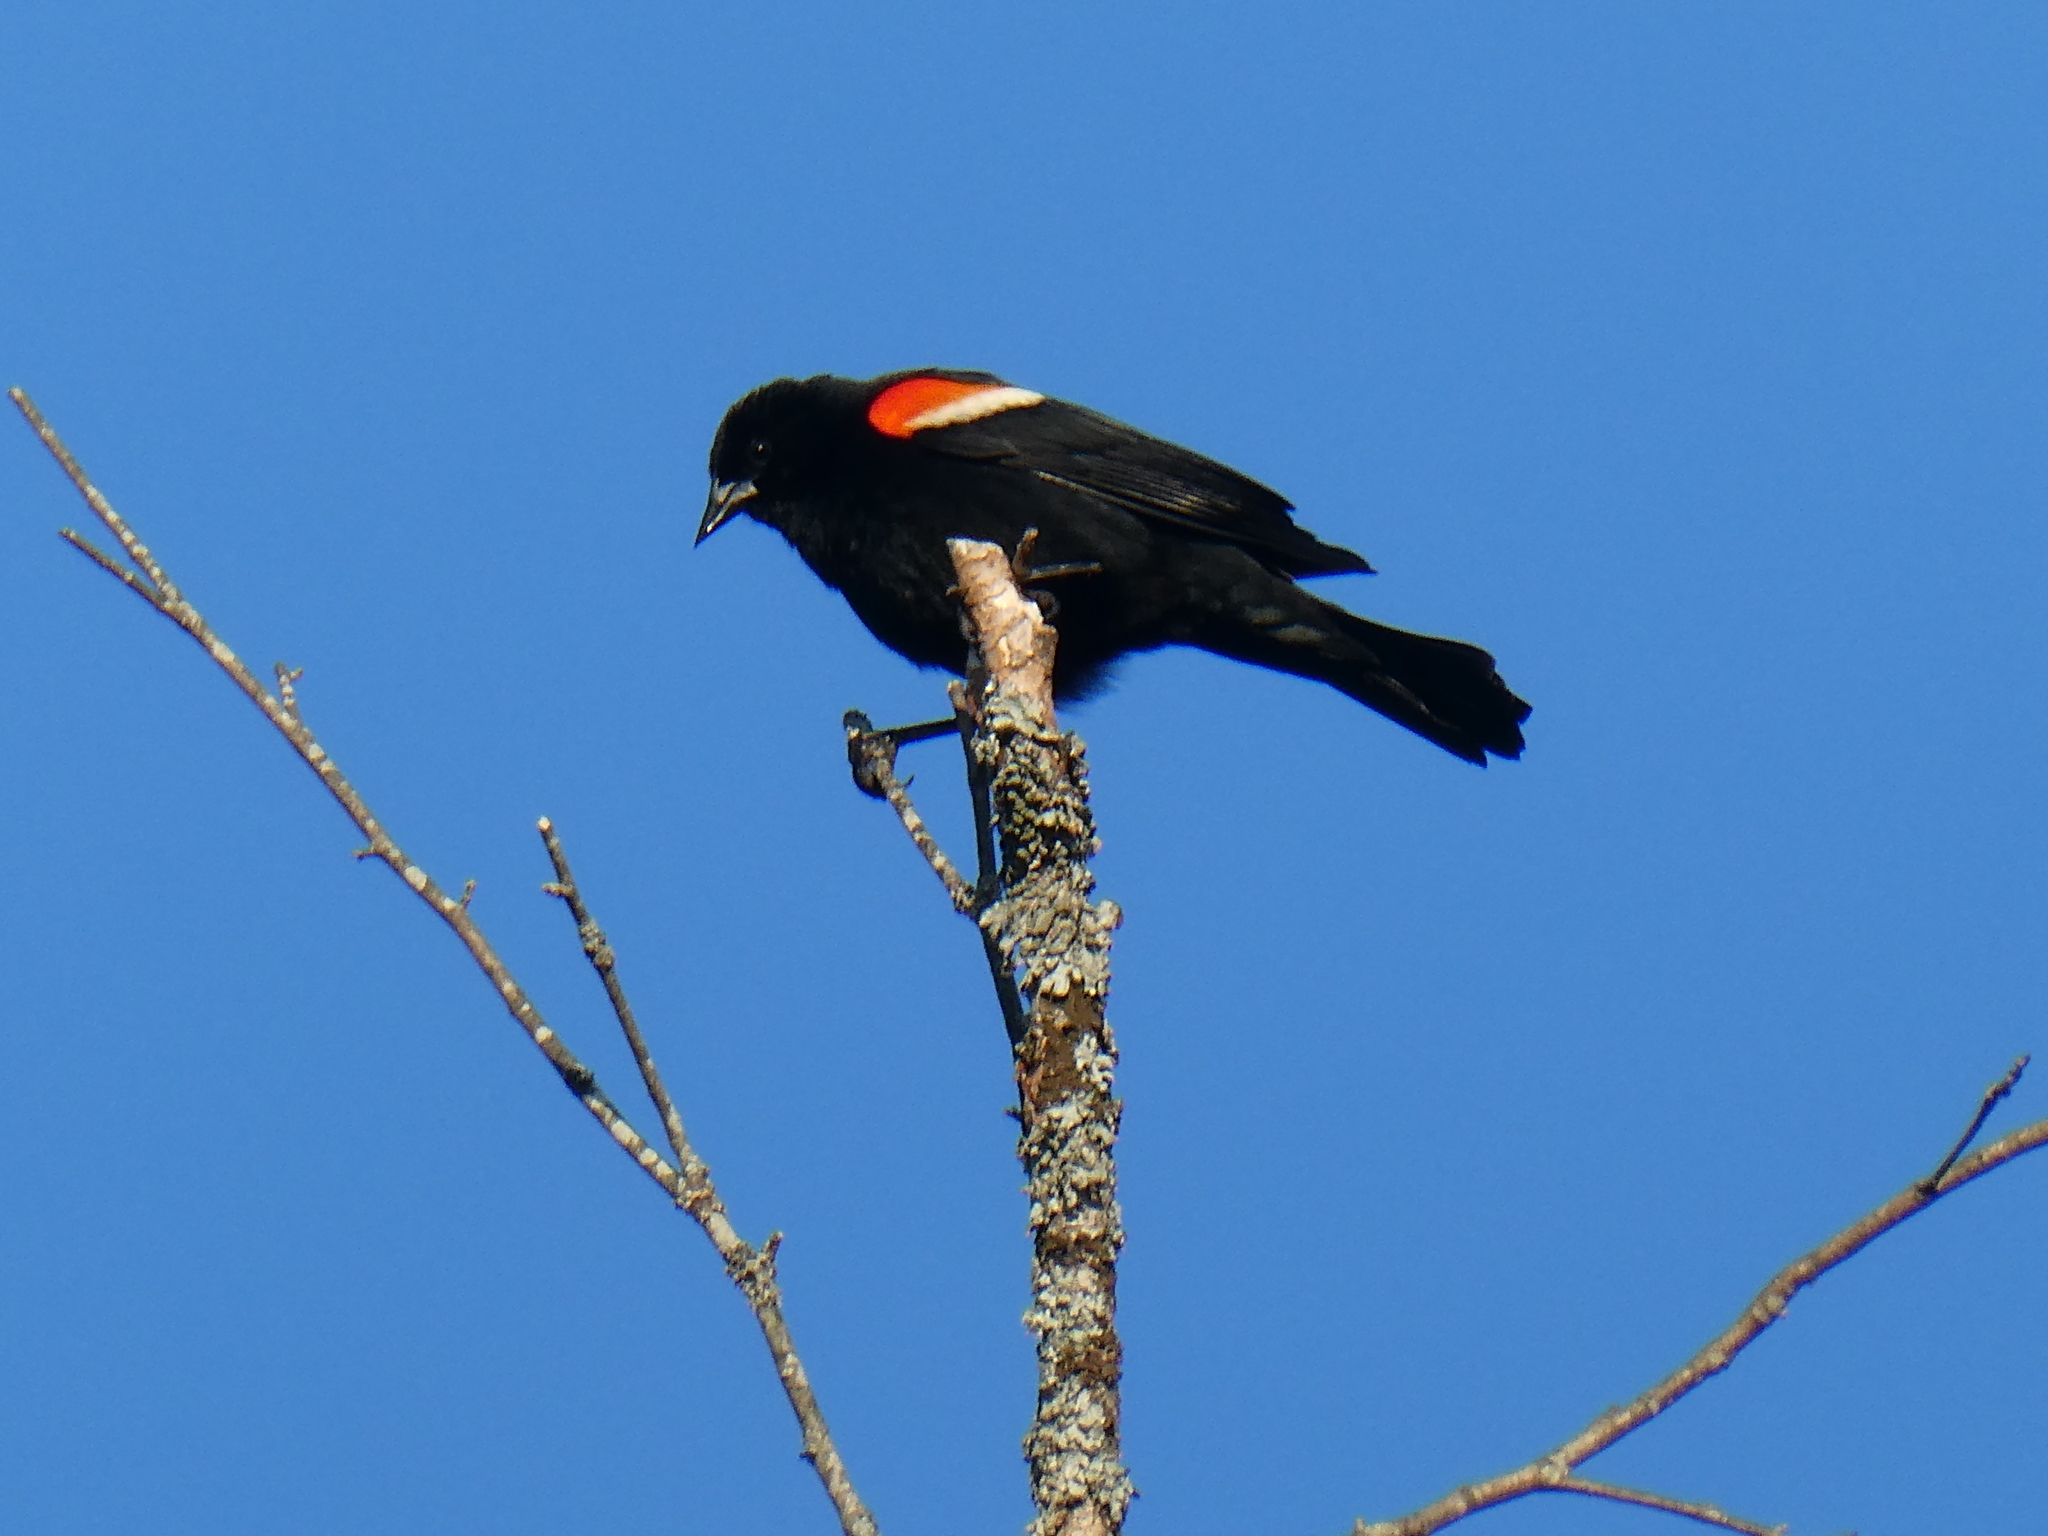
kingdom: Animalia
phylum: Chordata
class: Aves
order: Passeriformes
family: Icteridae
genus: Agelaius
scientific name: Agelaius phoeniceus
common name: Red-winged blackbird
